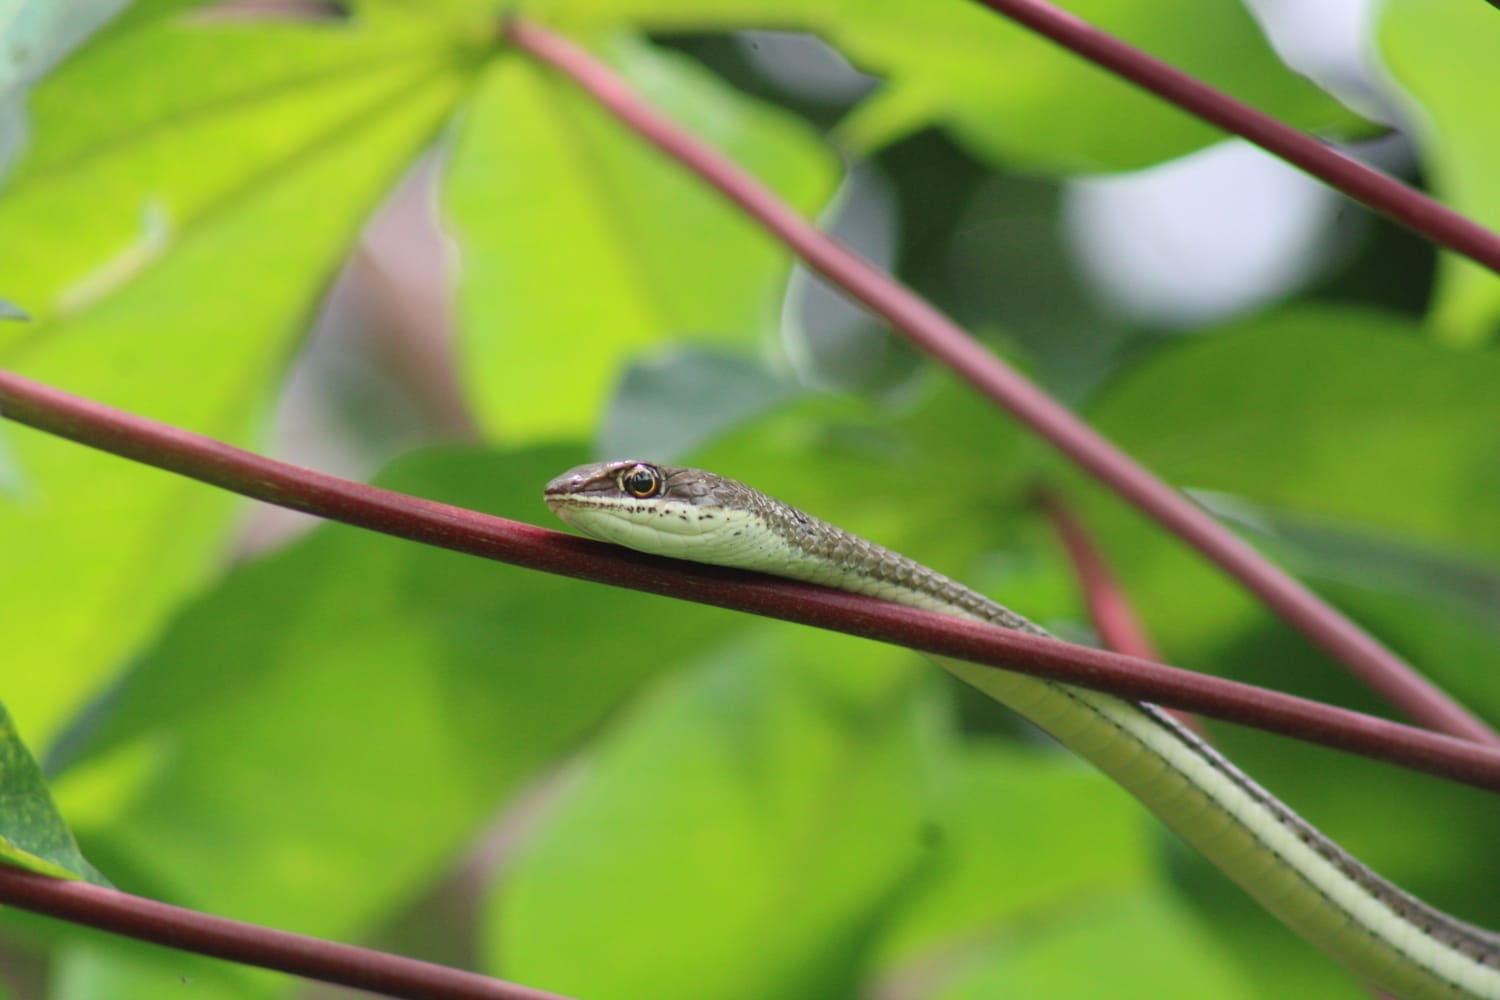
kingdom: Animalia
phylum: Chordata
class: Squamata
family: Psammophiidae
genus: Psammophis
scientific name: Psammophis orientalis
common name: Eastern stripe-bellied sand snake
